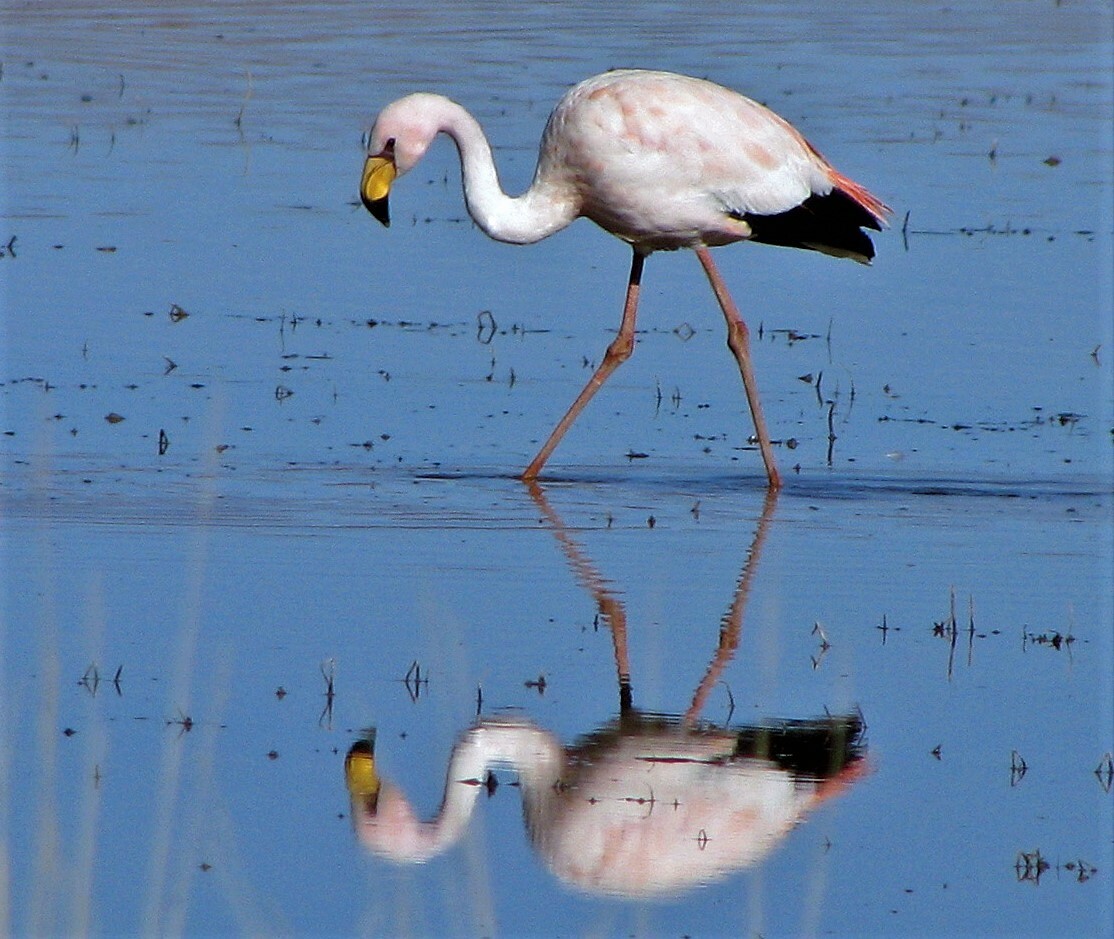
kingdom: Animalia
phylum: Chordata
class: Aves
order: Phoenicopteriformes
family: Phoenicopteridae
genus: Phoenicoparrus
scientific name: Phoenicoparrus jamesi
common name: James's flamingo
